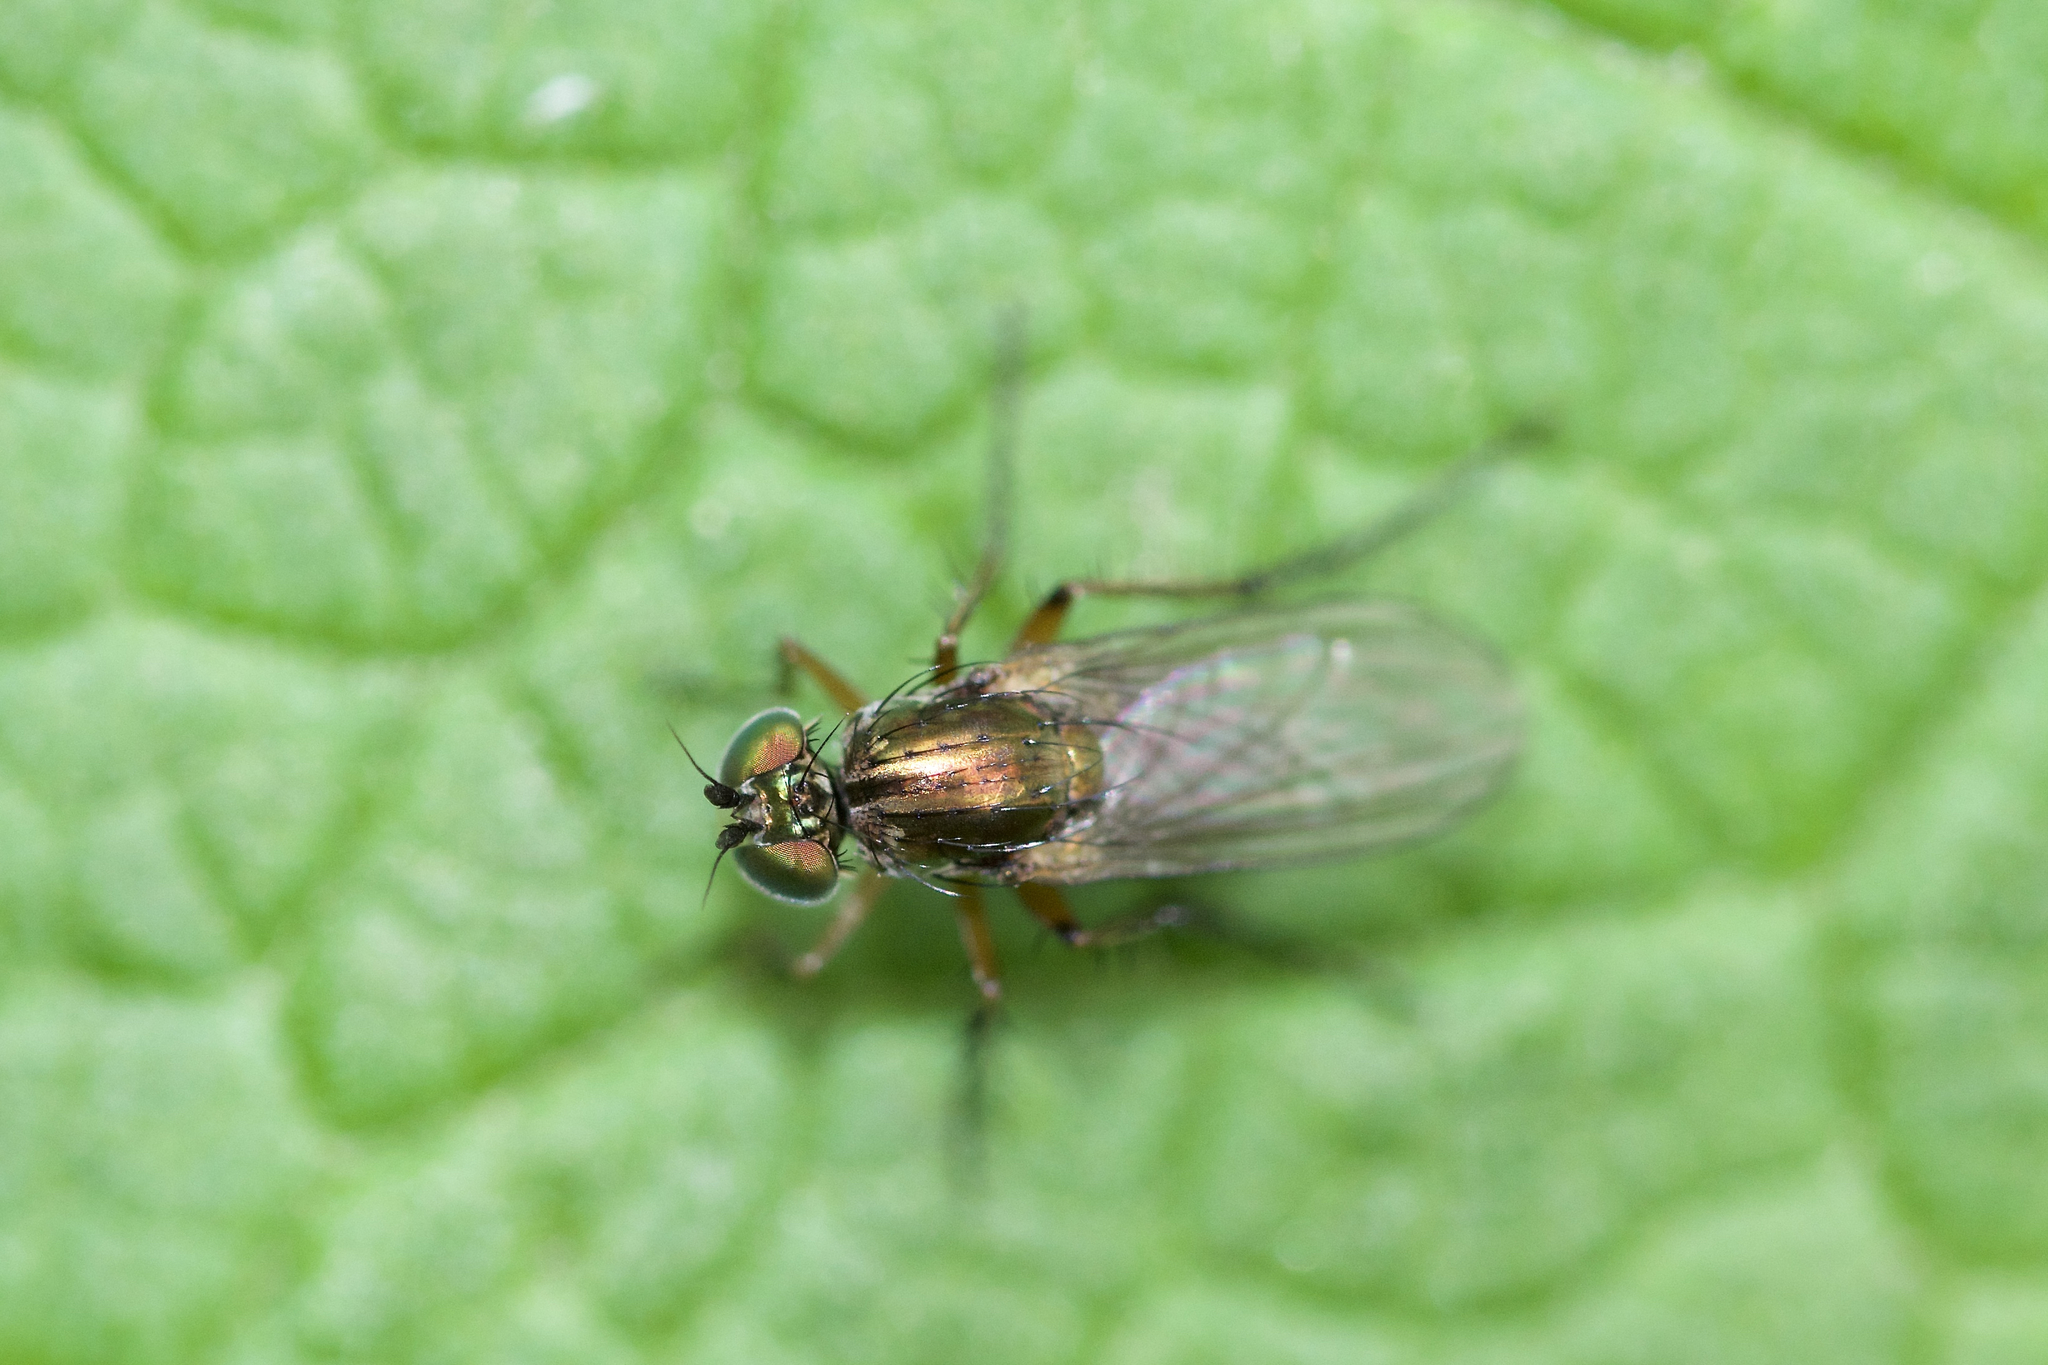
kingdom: Animalia
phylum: Arthropoda
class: Insecta
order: Diptera
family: Dolichopodidae
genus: Dolichopus
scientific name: Dolichopus comatus
